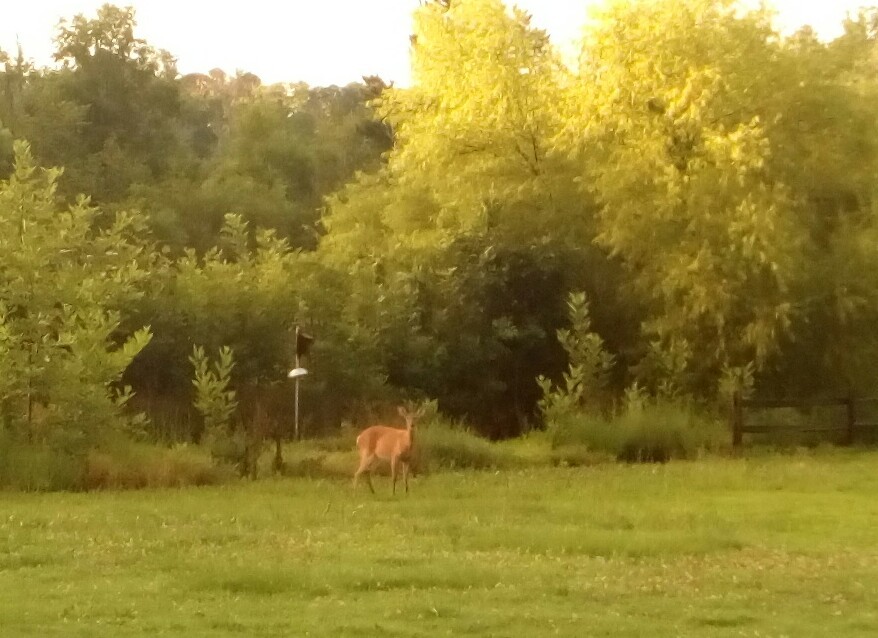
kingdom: Animalia
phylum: Chordata
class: Mammalia
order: Artiodactyla
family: Cervidae
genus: Odocoileus
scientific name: Odocoileus virginianus
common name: White-tailed deer
